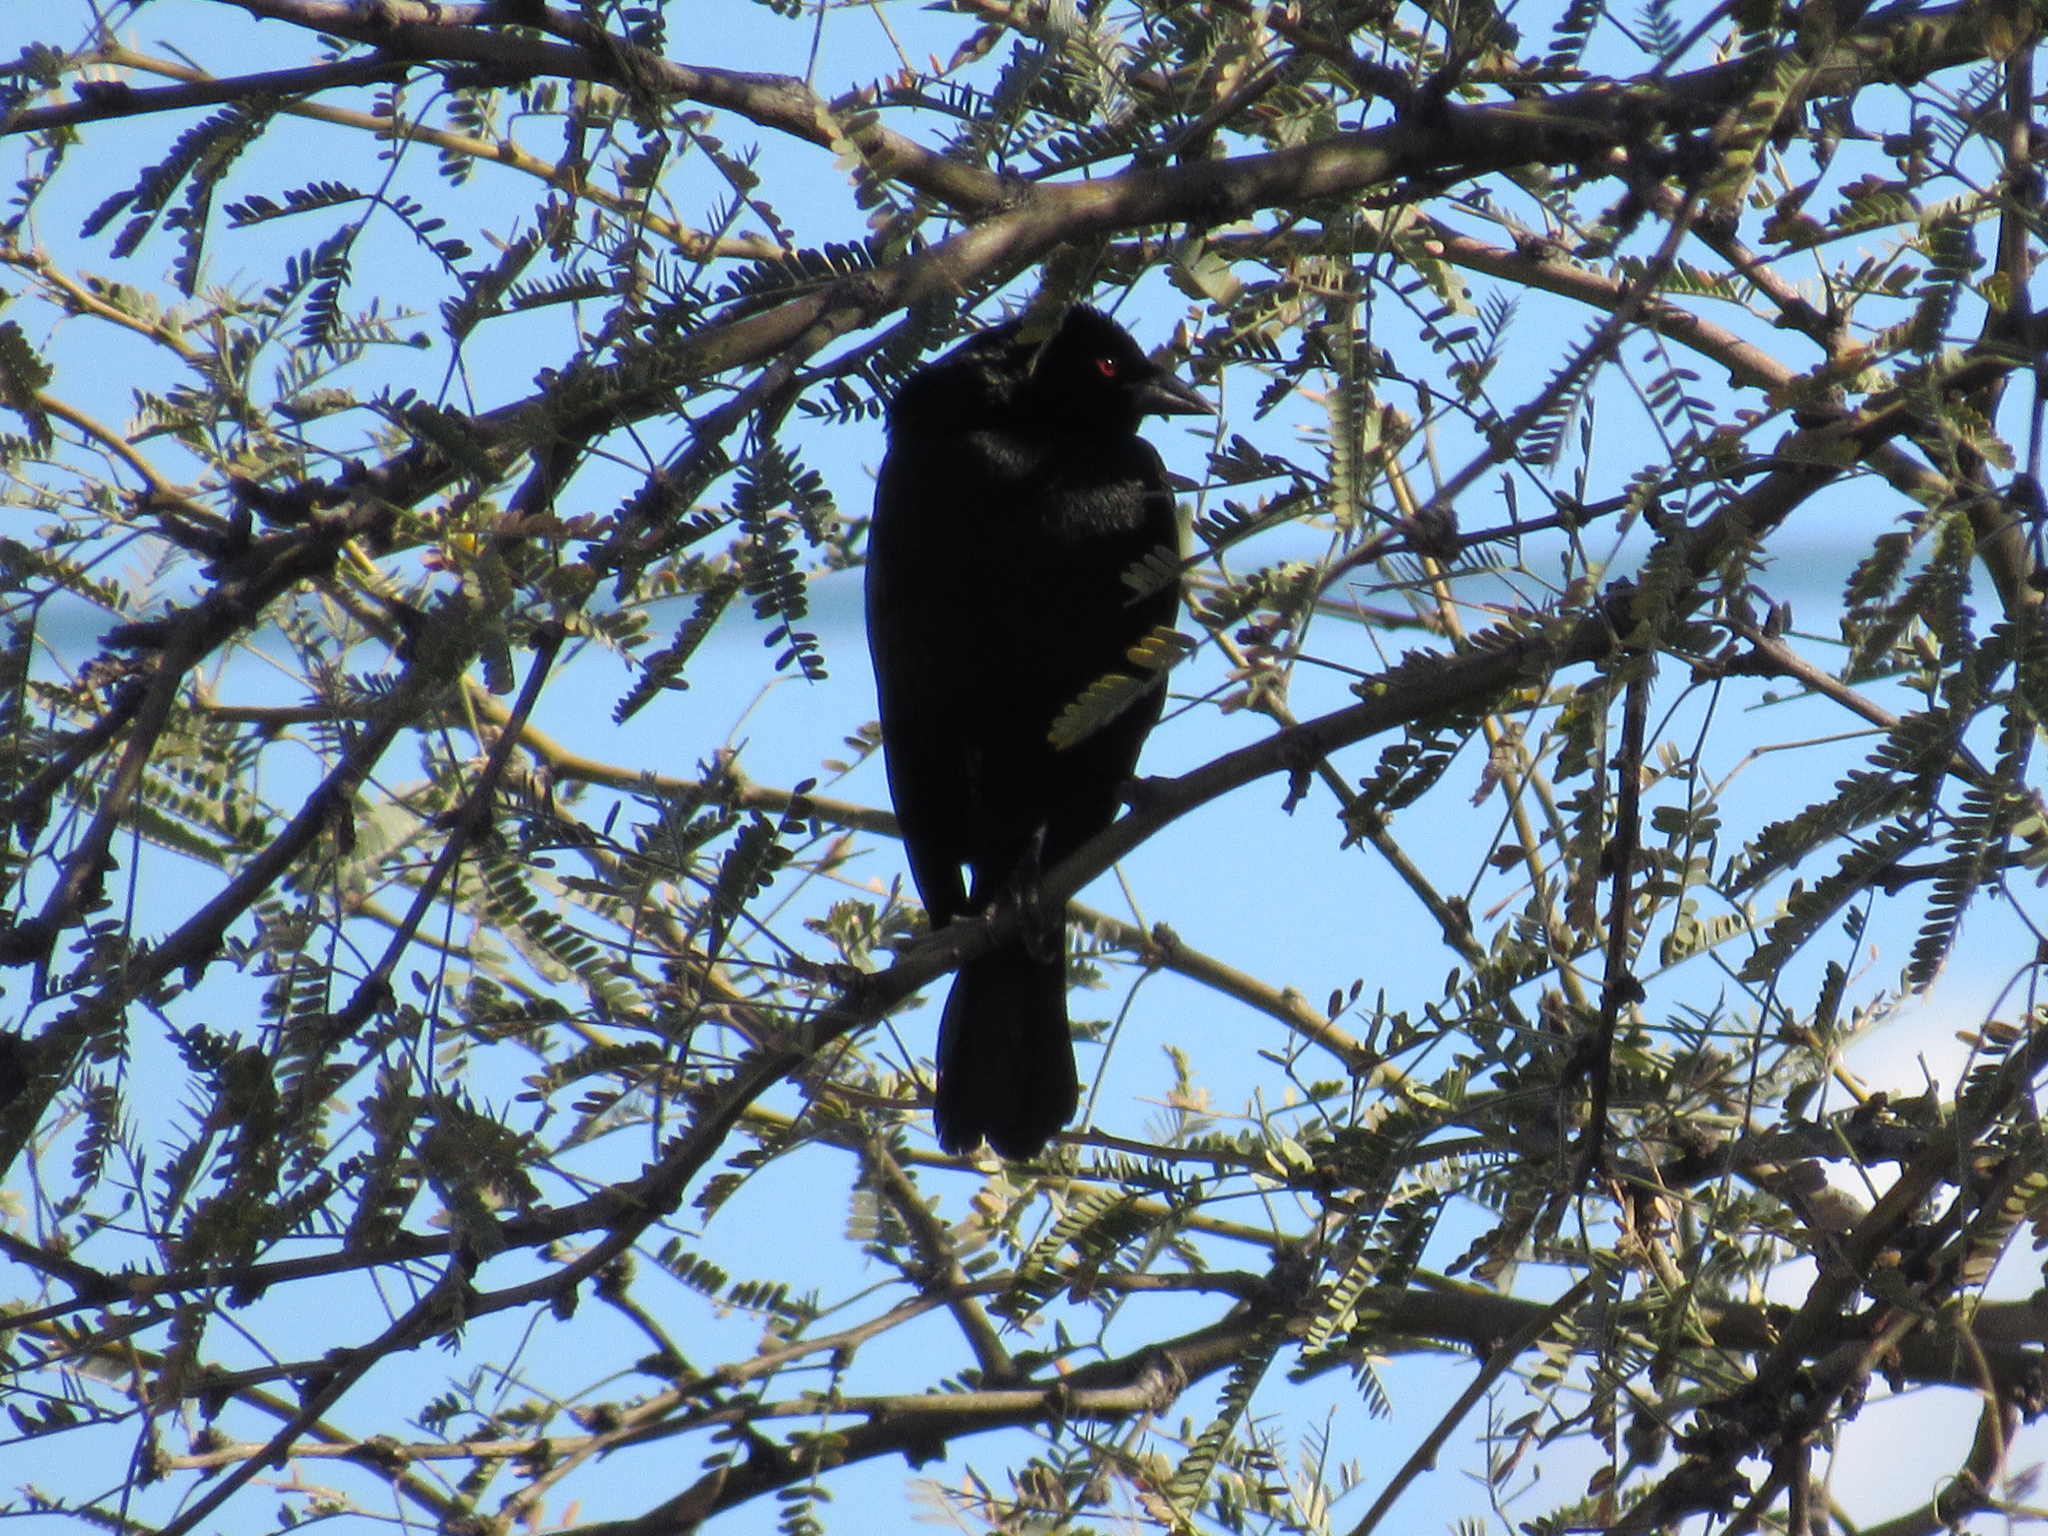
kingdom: Animalia
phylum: Chordata
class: Aves
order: Passeriformes
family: Icteridae
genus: Molothrus
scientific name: Molothrus aeneus
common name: Bronzed cowbird
